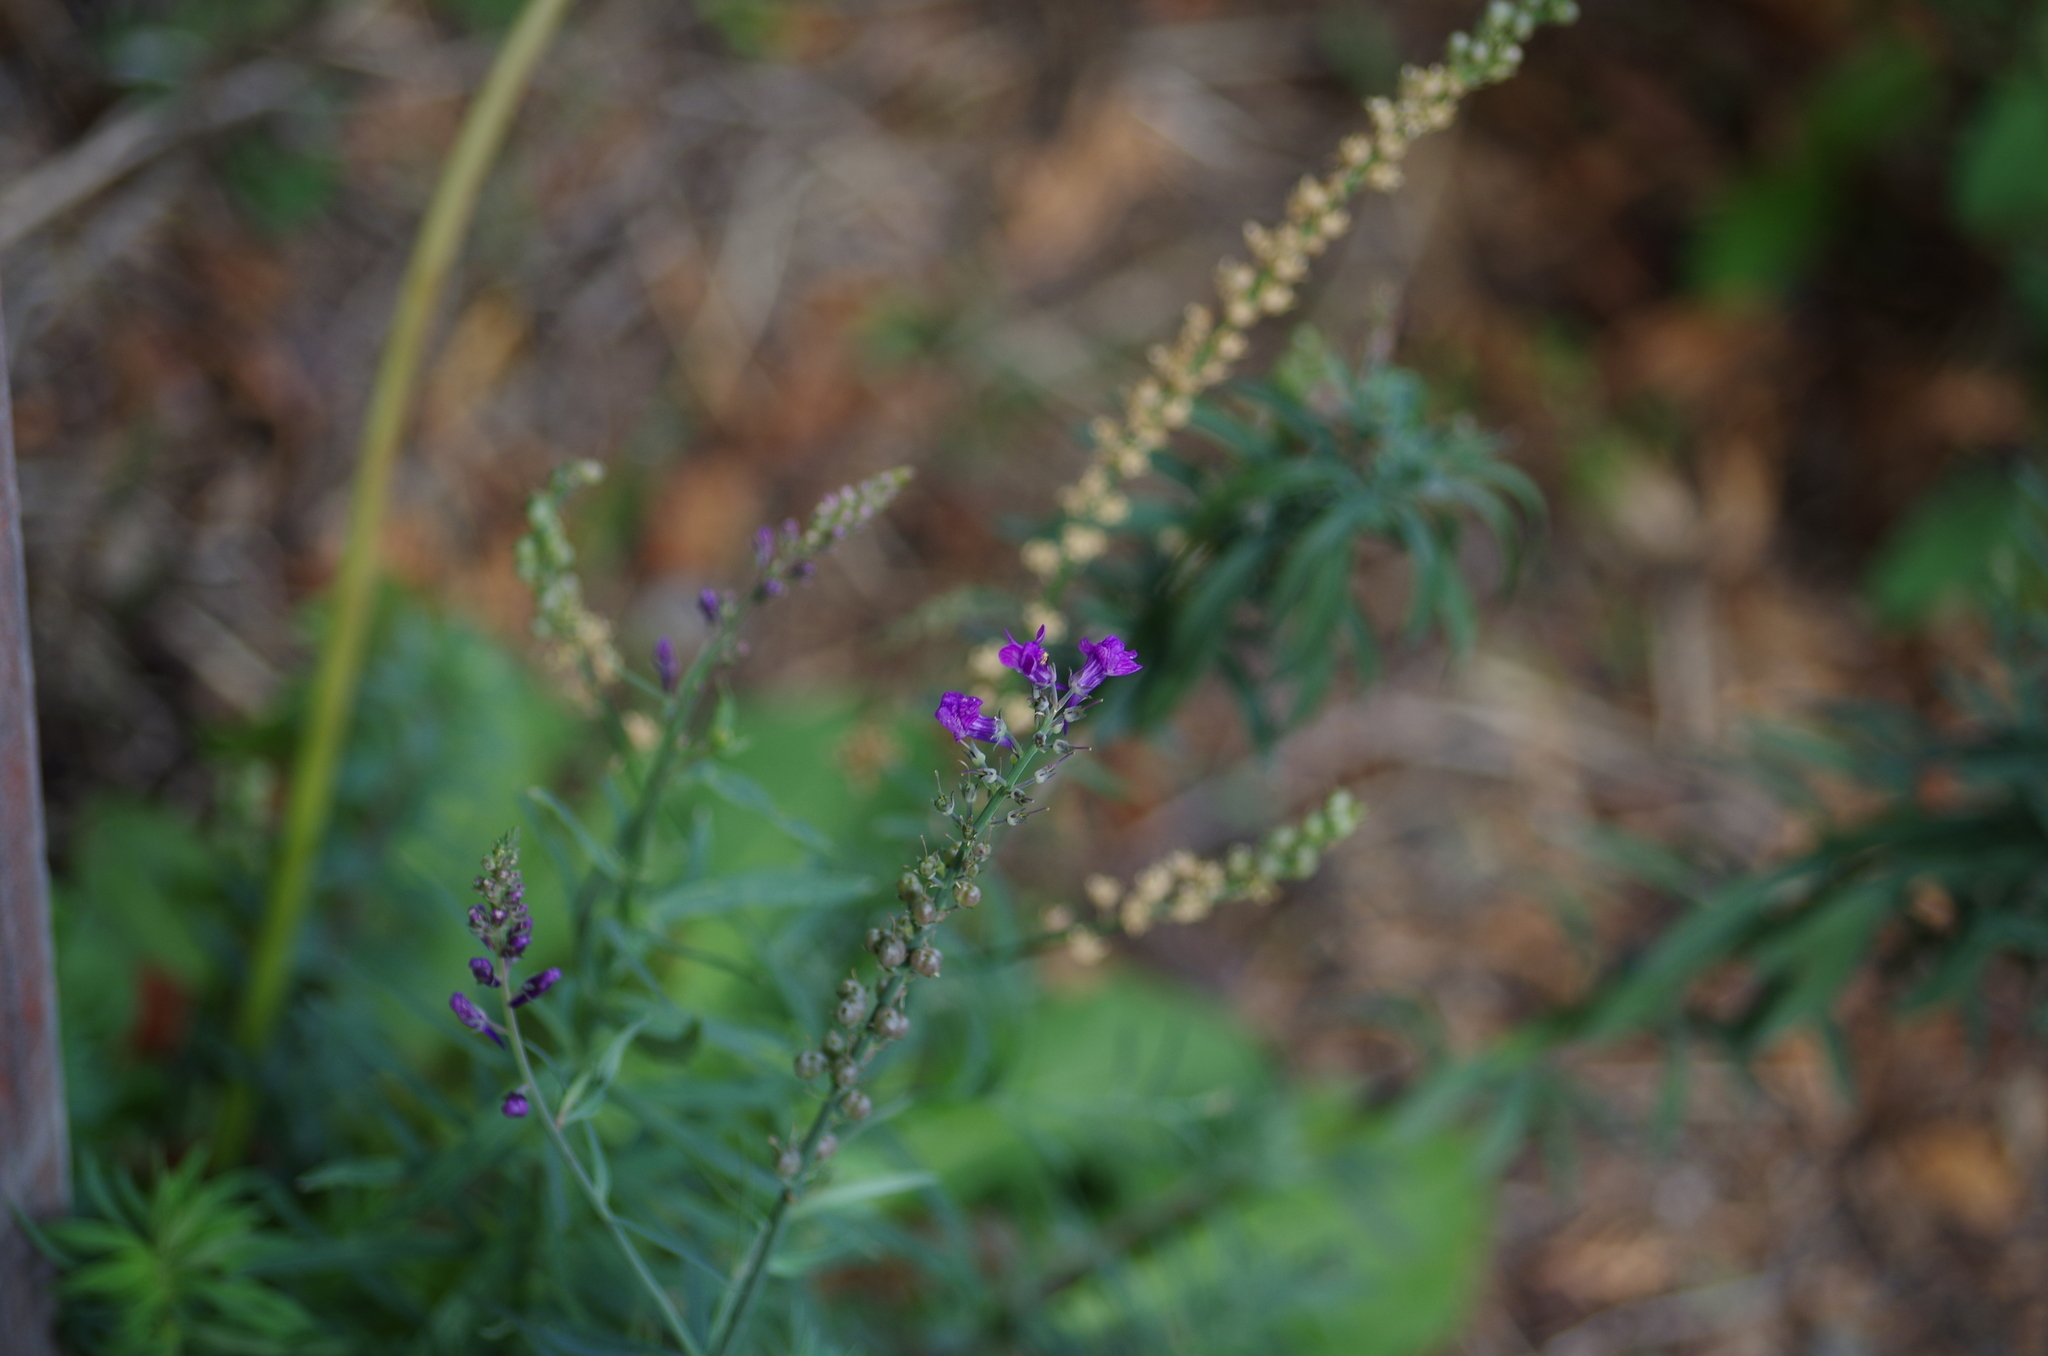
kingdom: Plantae
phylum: Tracheophyta
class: Magnoliopsida
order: Lamiales
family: Plantaginaceae
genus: Linaria
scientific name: Linaria purpurea
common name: Purple toadflax
